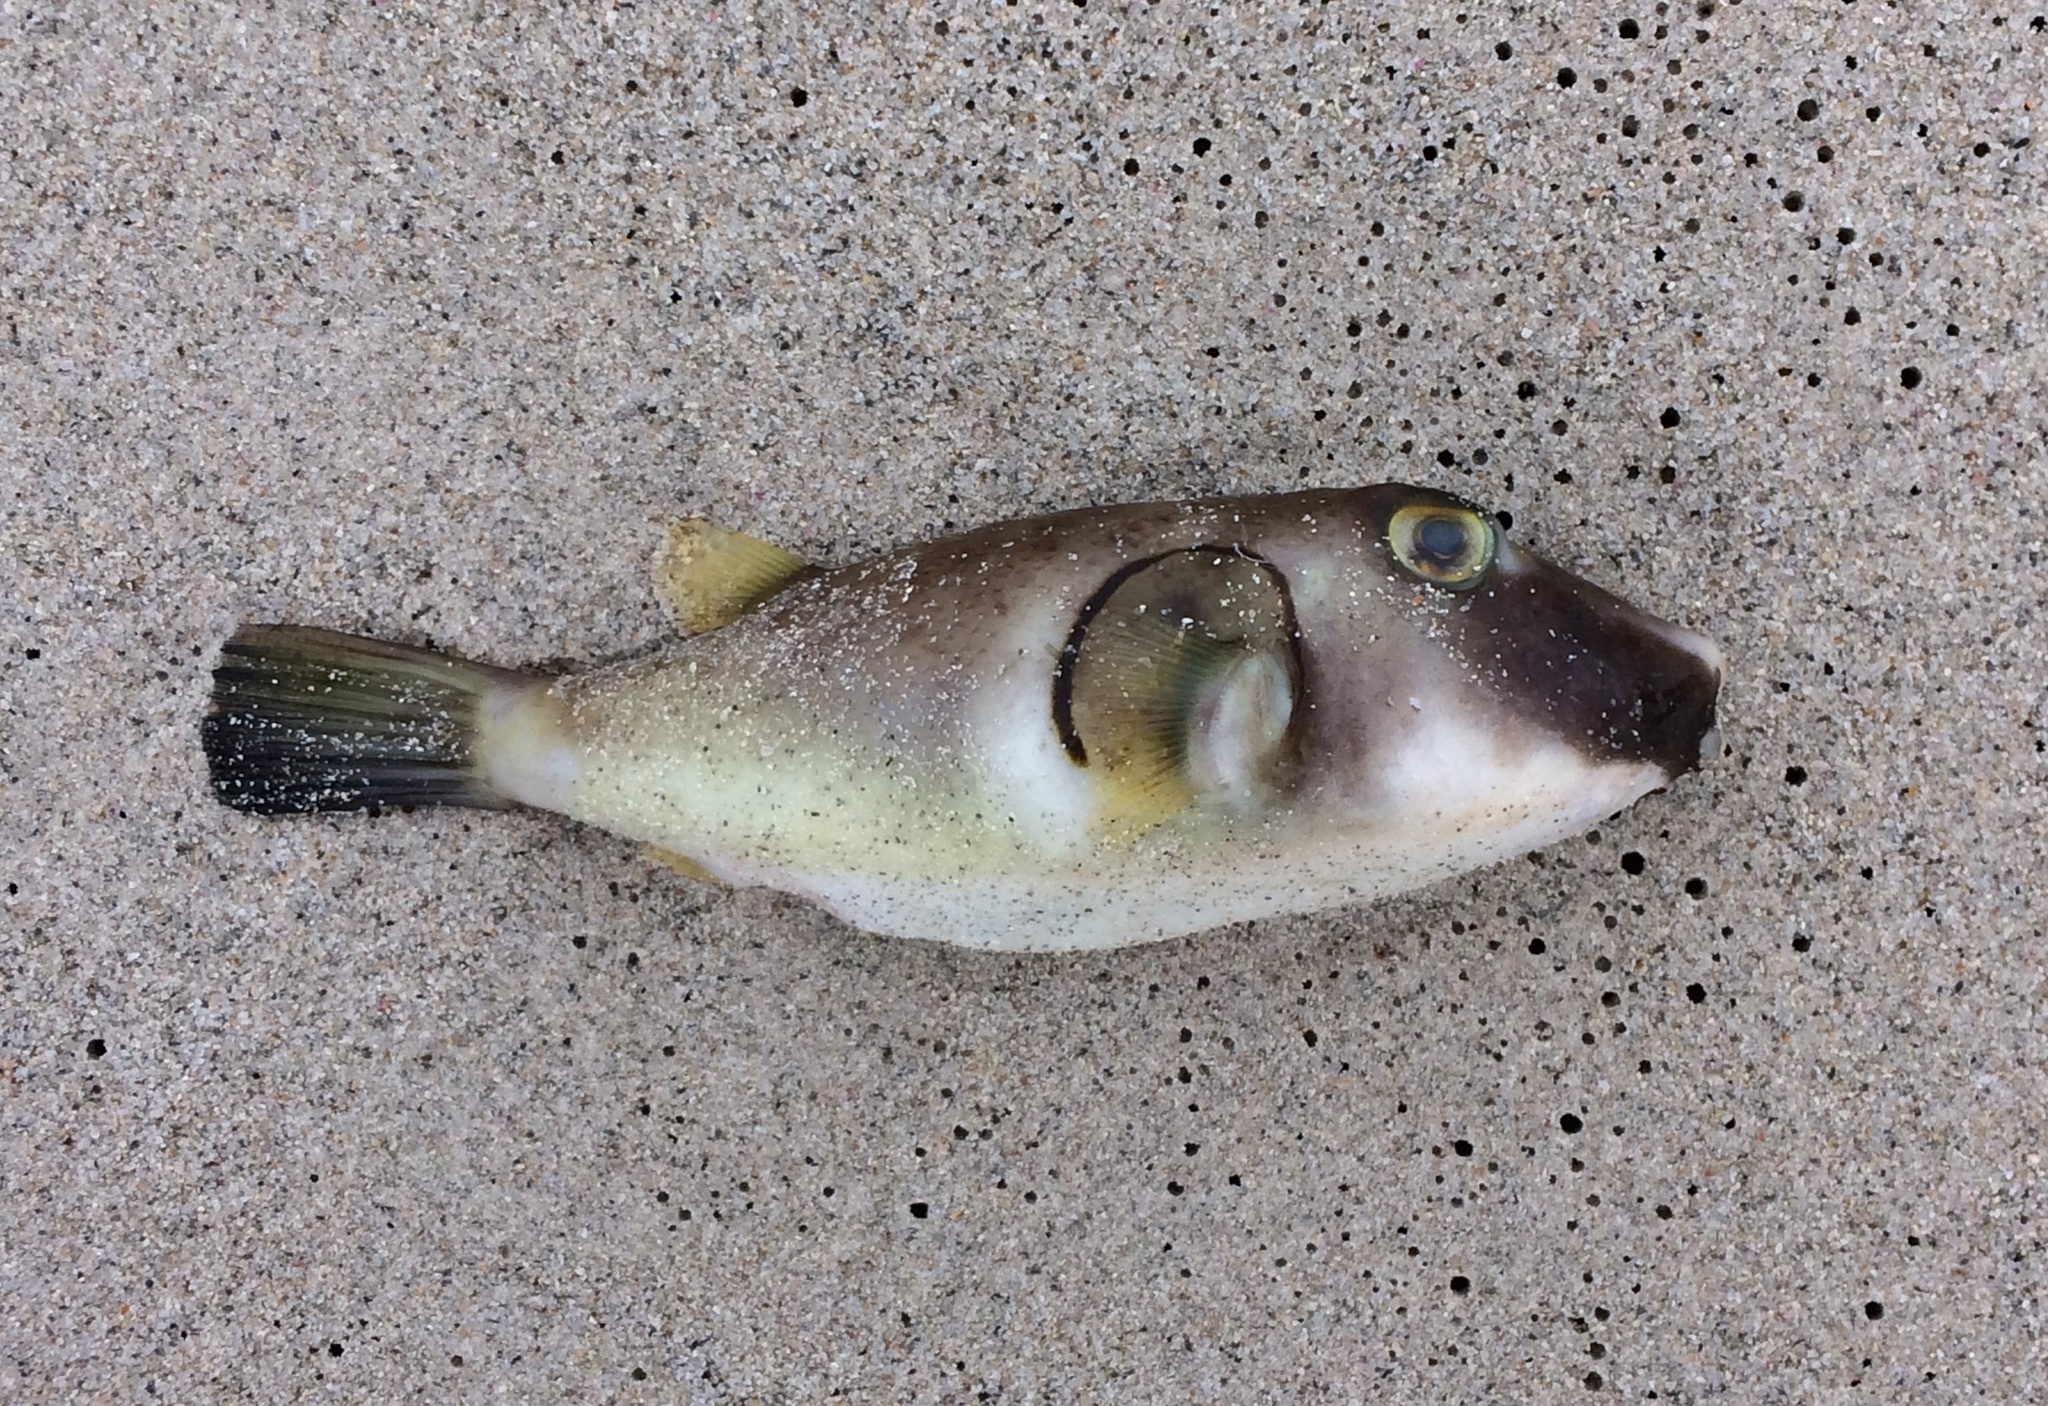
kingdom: Animalia
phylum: Chordata
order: Tetraodontiformes
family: Tetraodontidae
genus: Omegophora
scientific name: Omegophora armilla
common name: Ringed pufferfish
